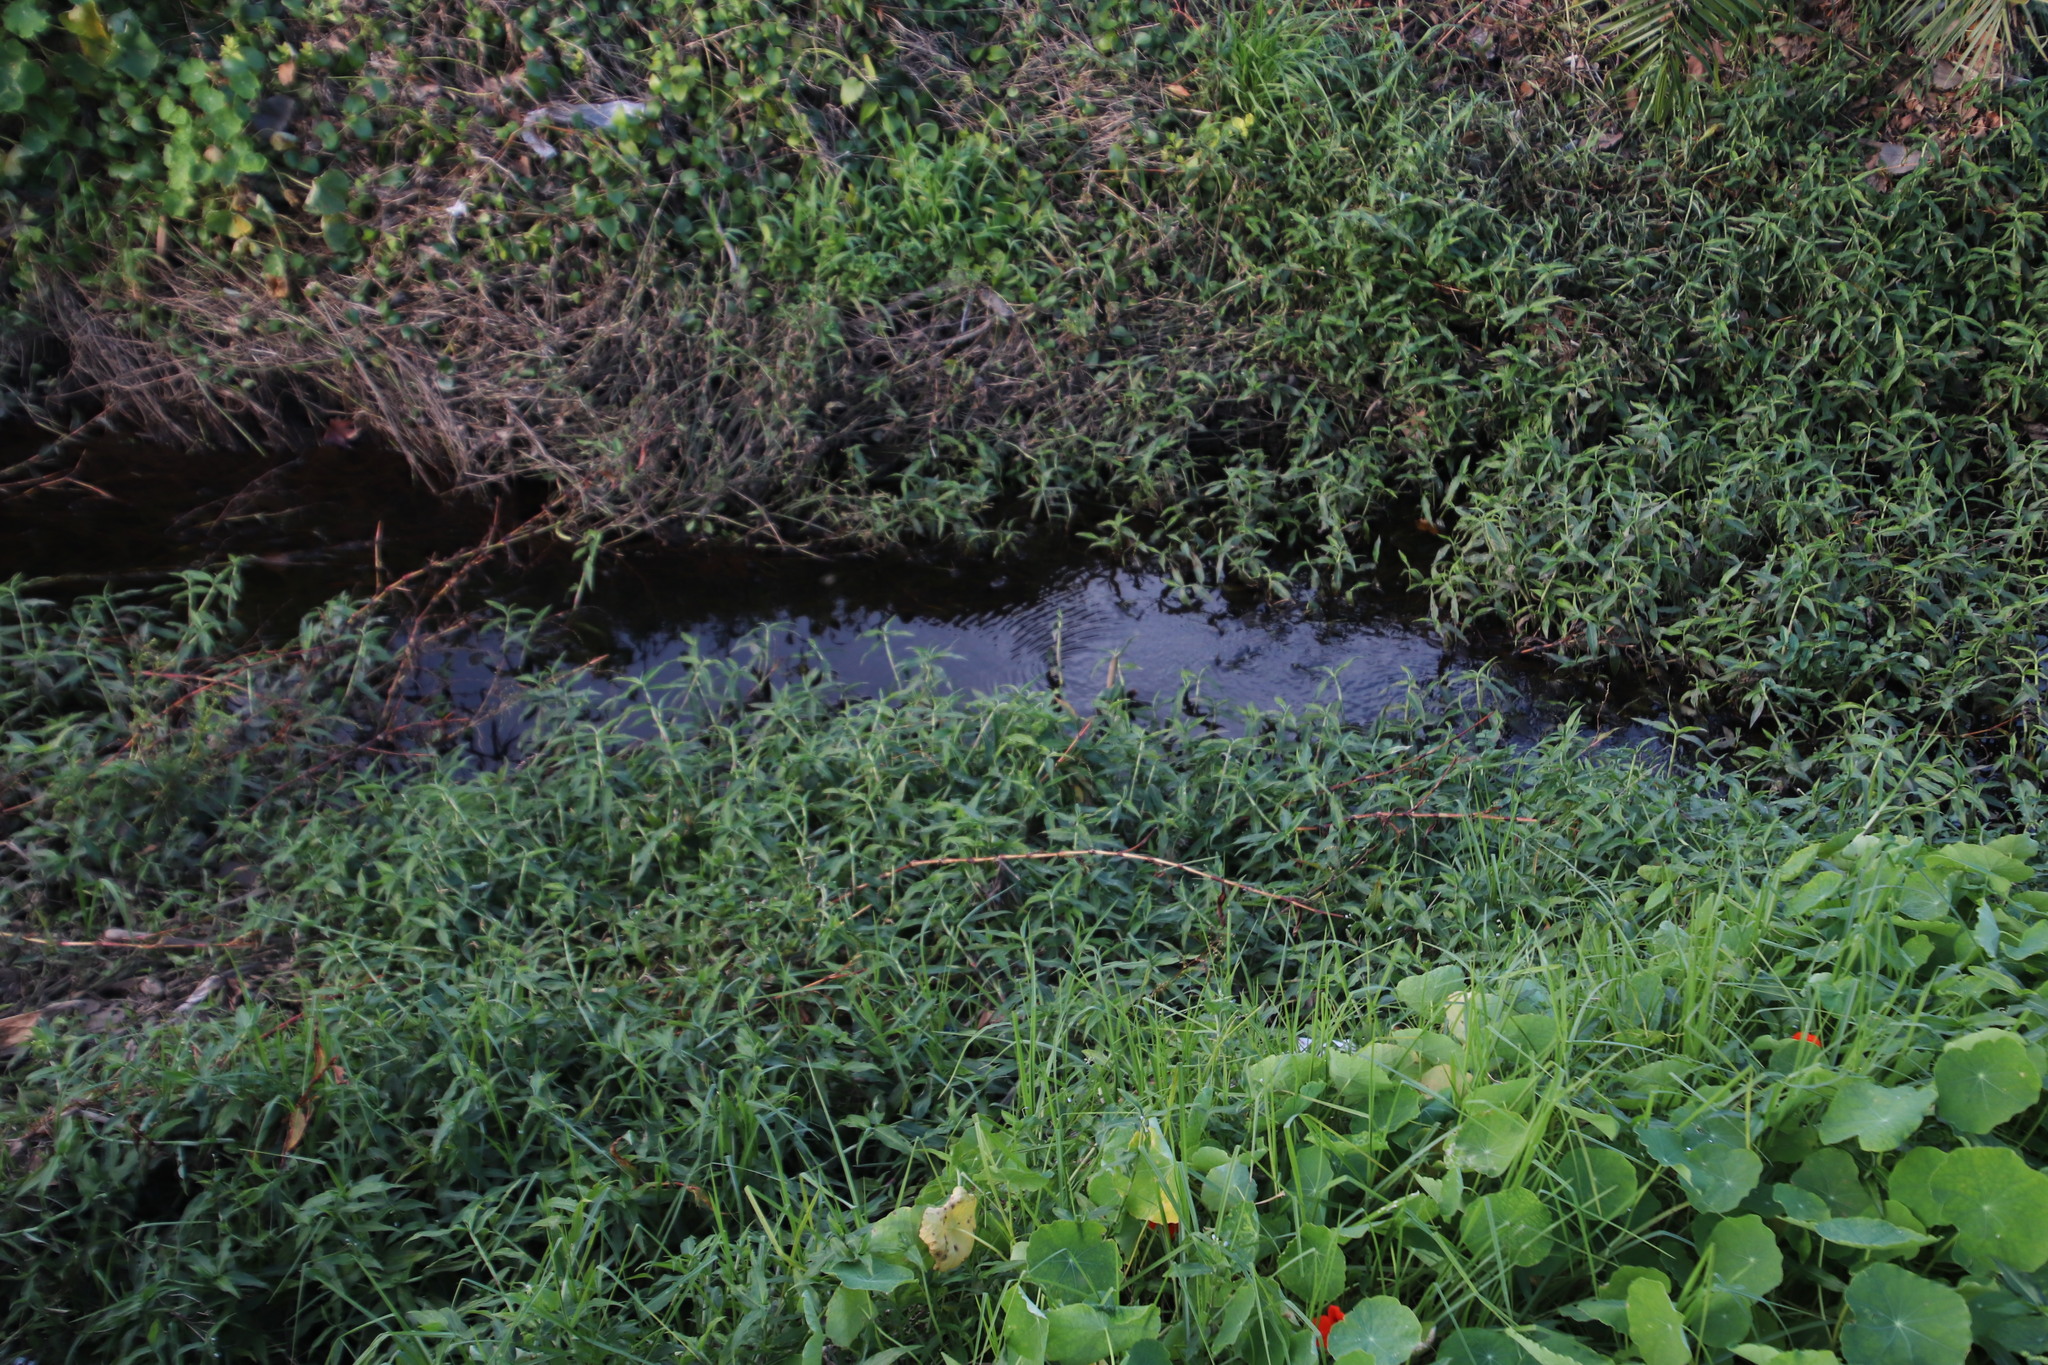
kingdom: Plantae
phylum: Tracheophyta
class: Liliopsida
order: Commelinales
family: Commelinaceae
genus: Commelina
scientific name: Commelina diffusa
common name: Climbing dayflower
